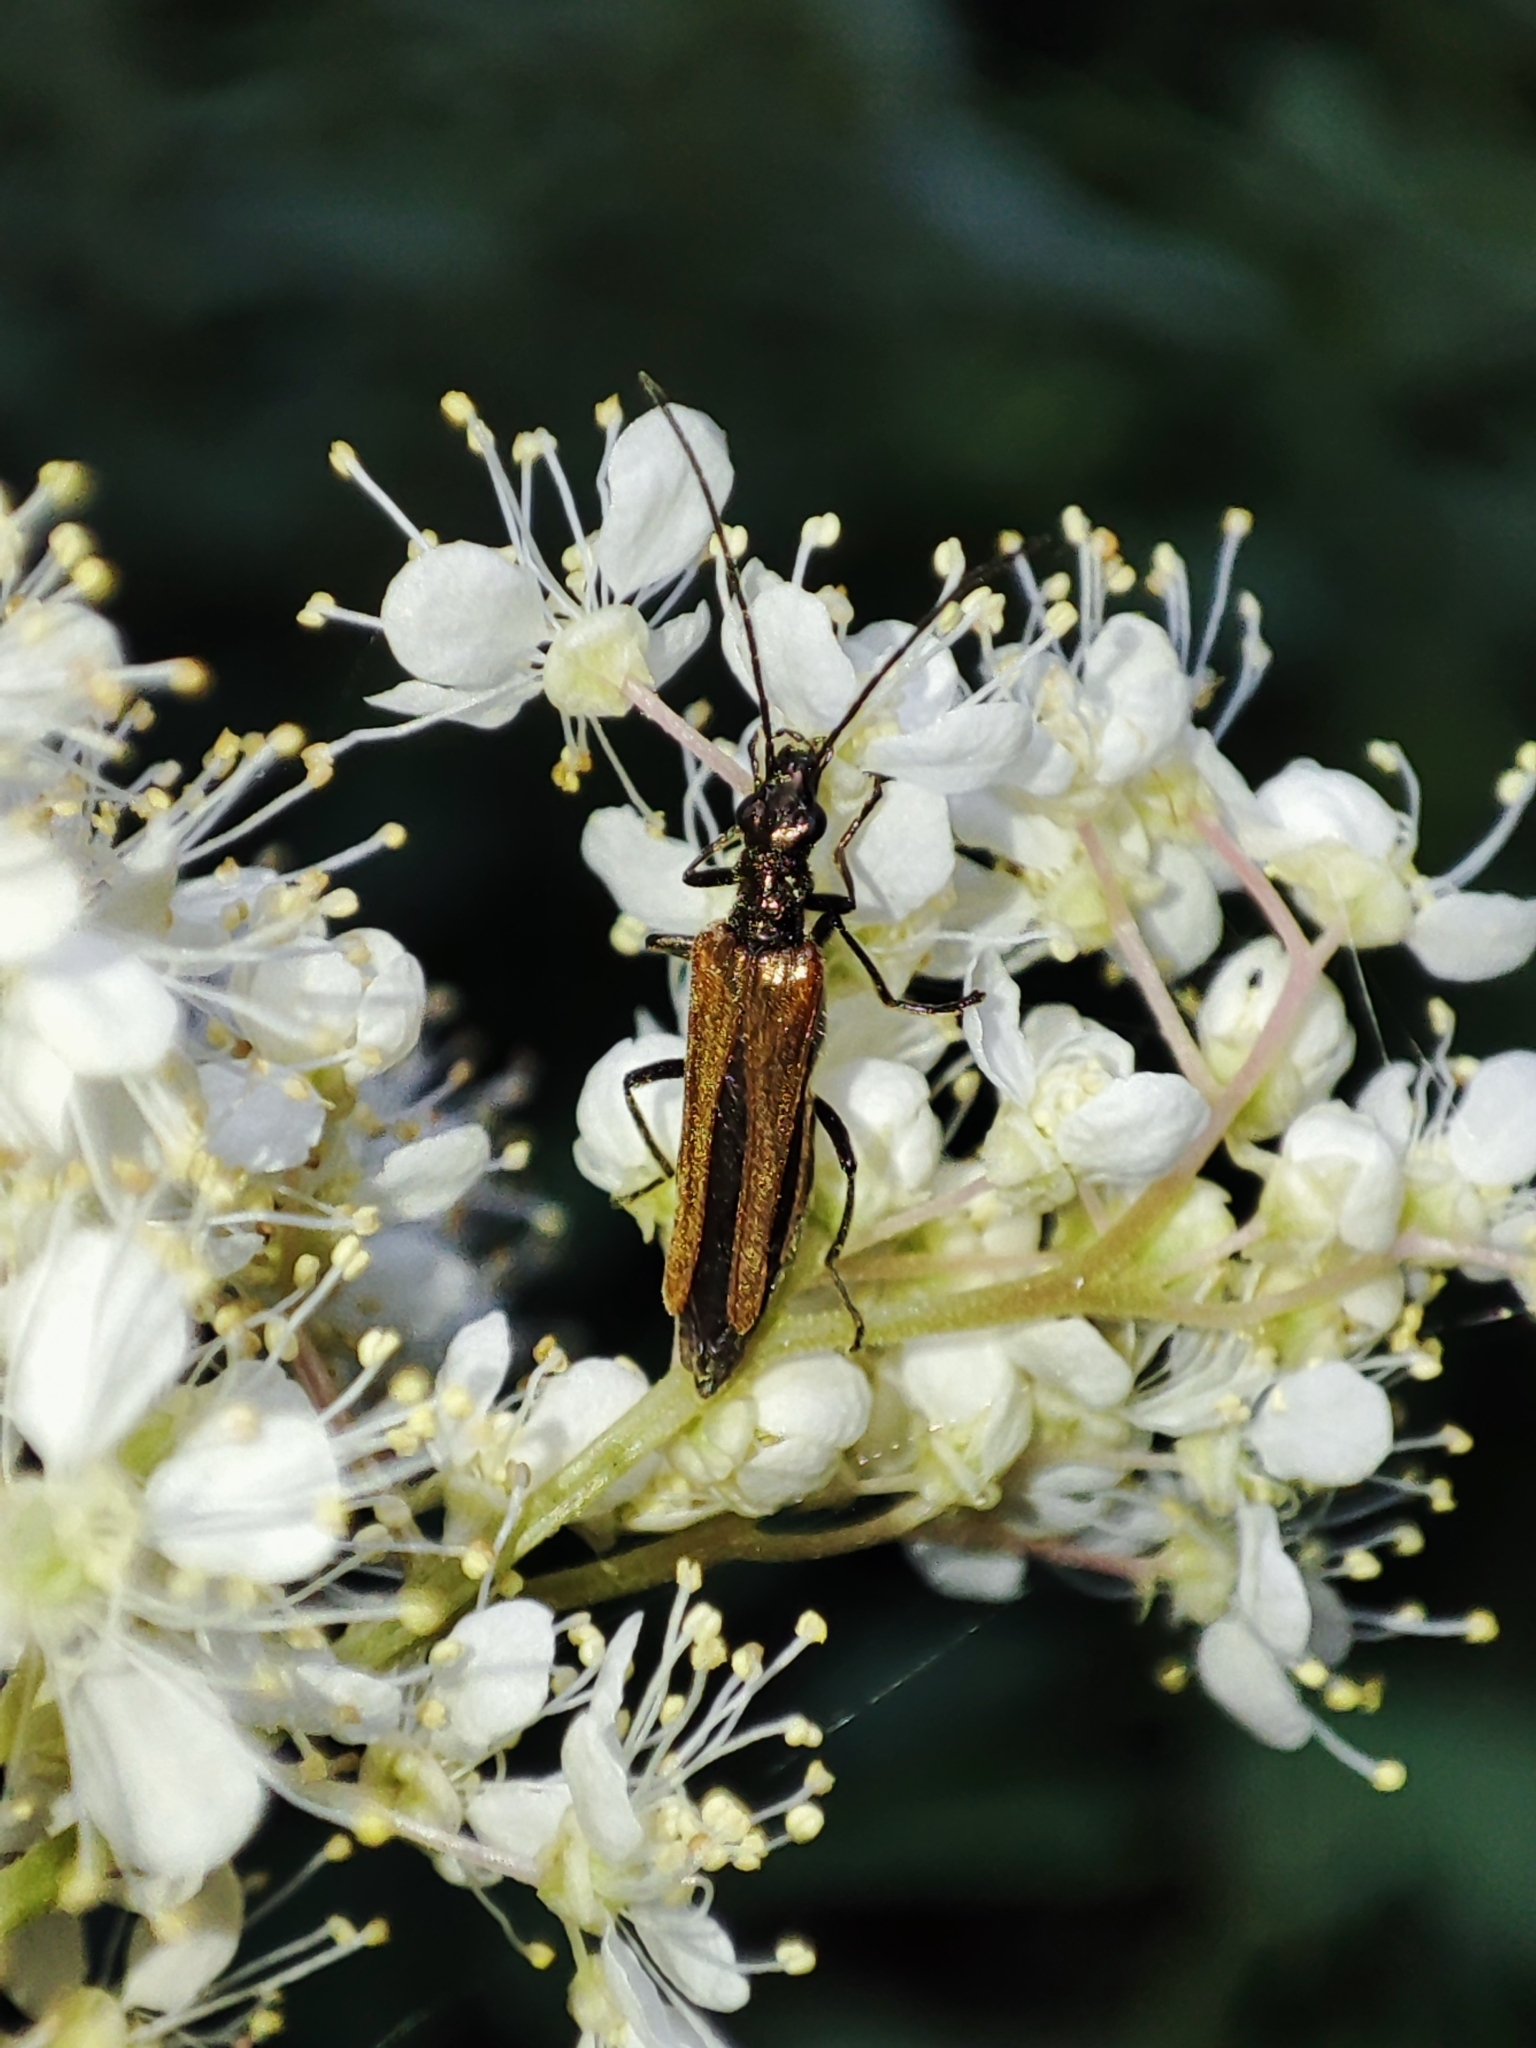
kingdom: Animalia
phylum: Arthropoda
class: Insecta
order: Coleoptera
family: Oedemeridae
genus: Oedemera
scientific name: Oedemera femorata
